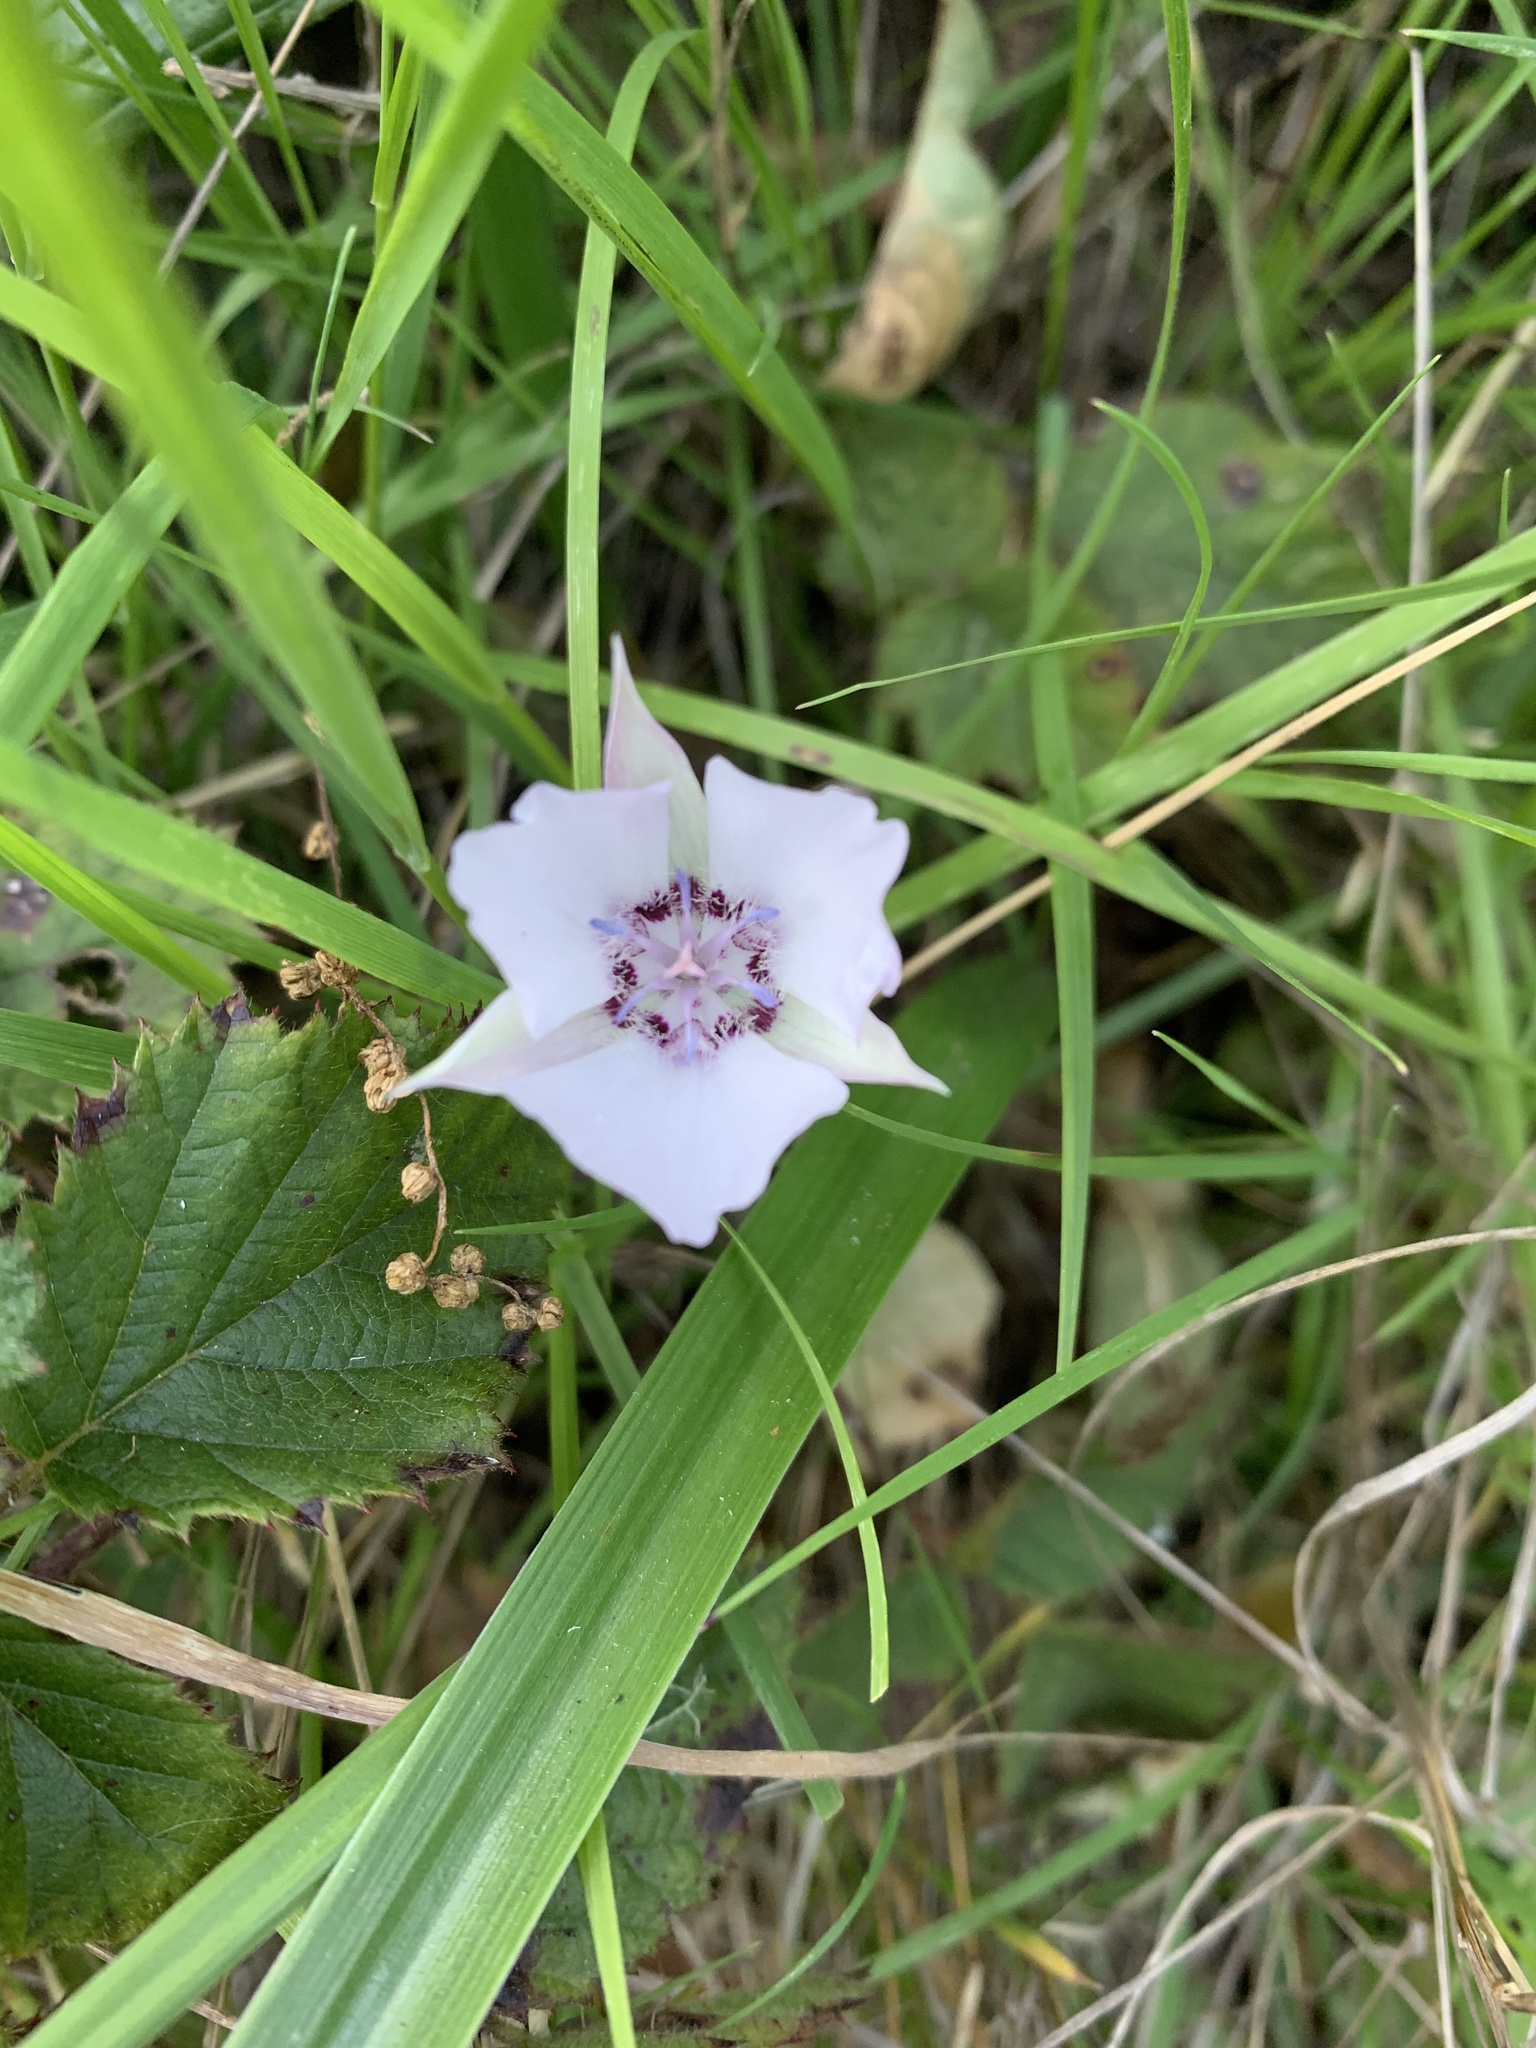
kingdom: Plantae
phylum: Tracheophyta
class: Liliopsida
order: Liliales
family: Liliaceae
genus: Calochortus
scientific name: Calochortus umbellatus
